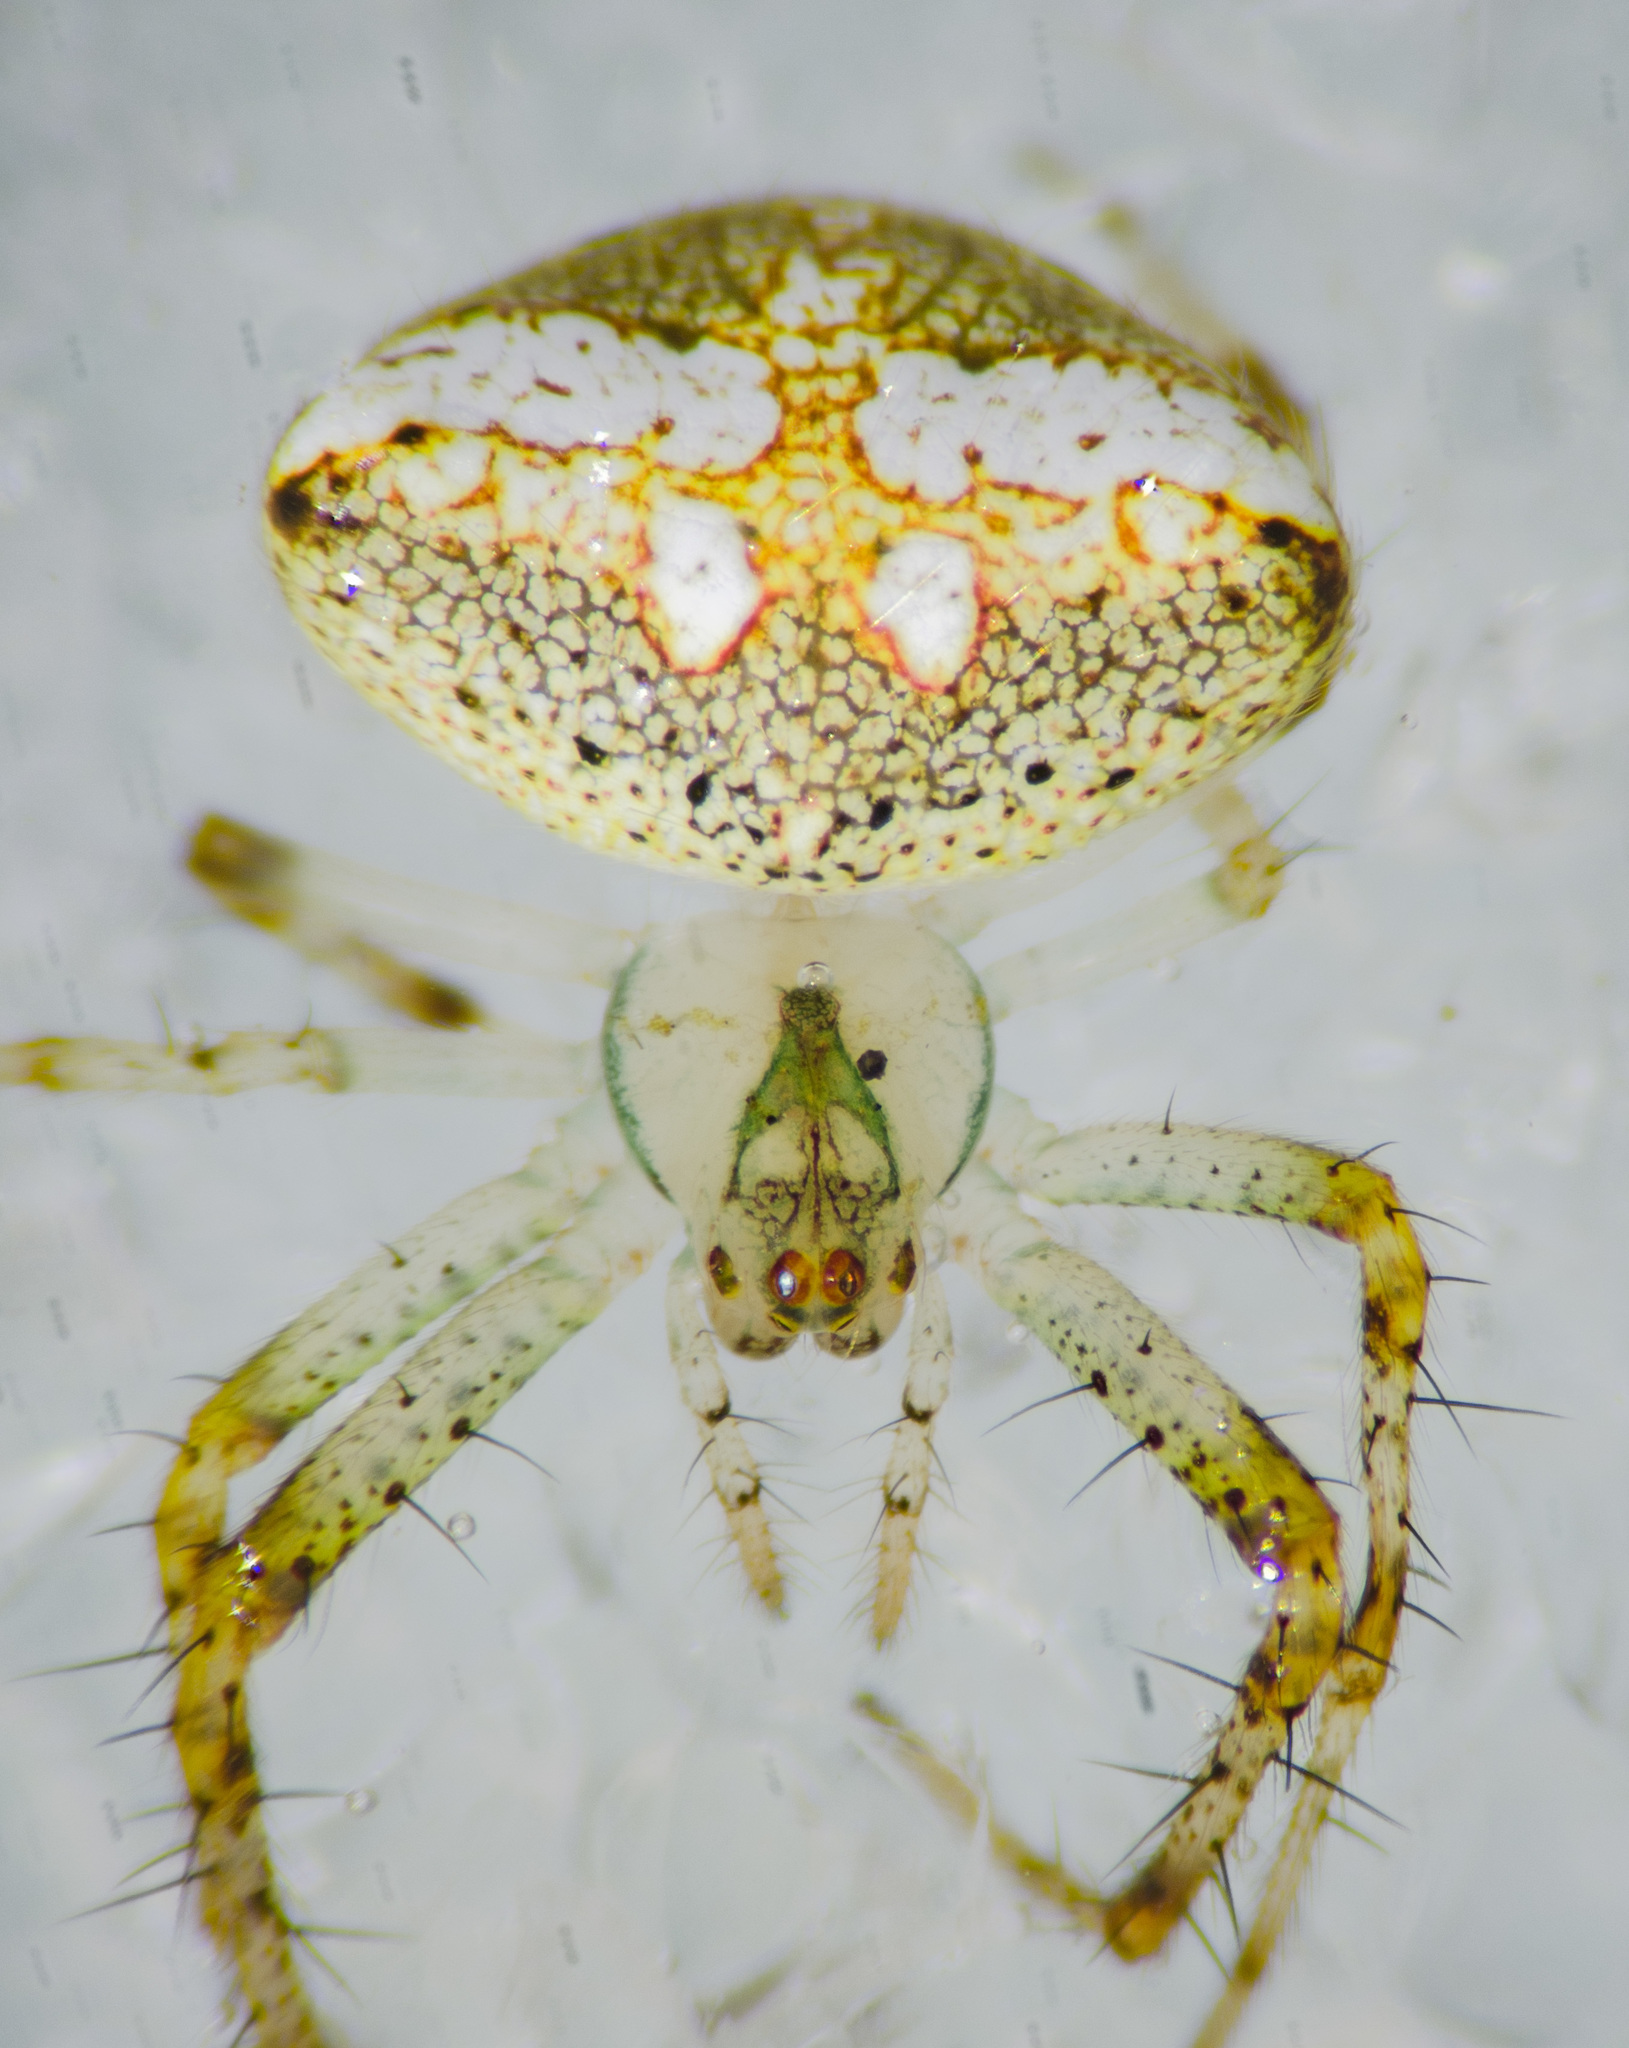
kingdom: Animalia
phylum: Arthropoda
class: Arachnida
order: Araneae
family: Araneidae
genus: Araneus
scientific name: Araneus miniatus
